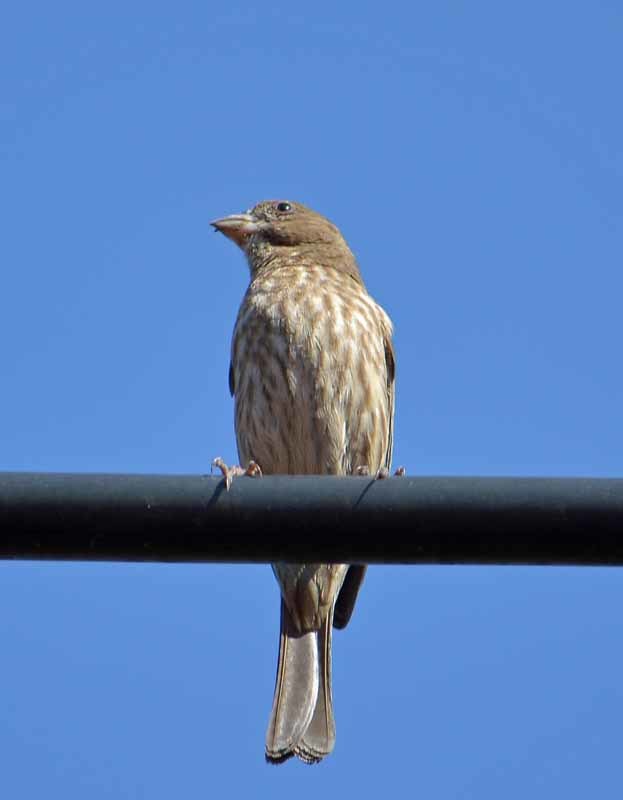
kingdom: Animalia
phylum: Chordata
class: Aves
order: Passeriformes
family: Fringillidae
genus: Haemorhous
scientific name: Haemorhous mexicanus
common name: House finch
